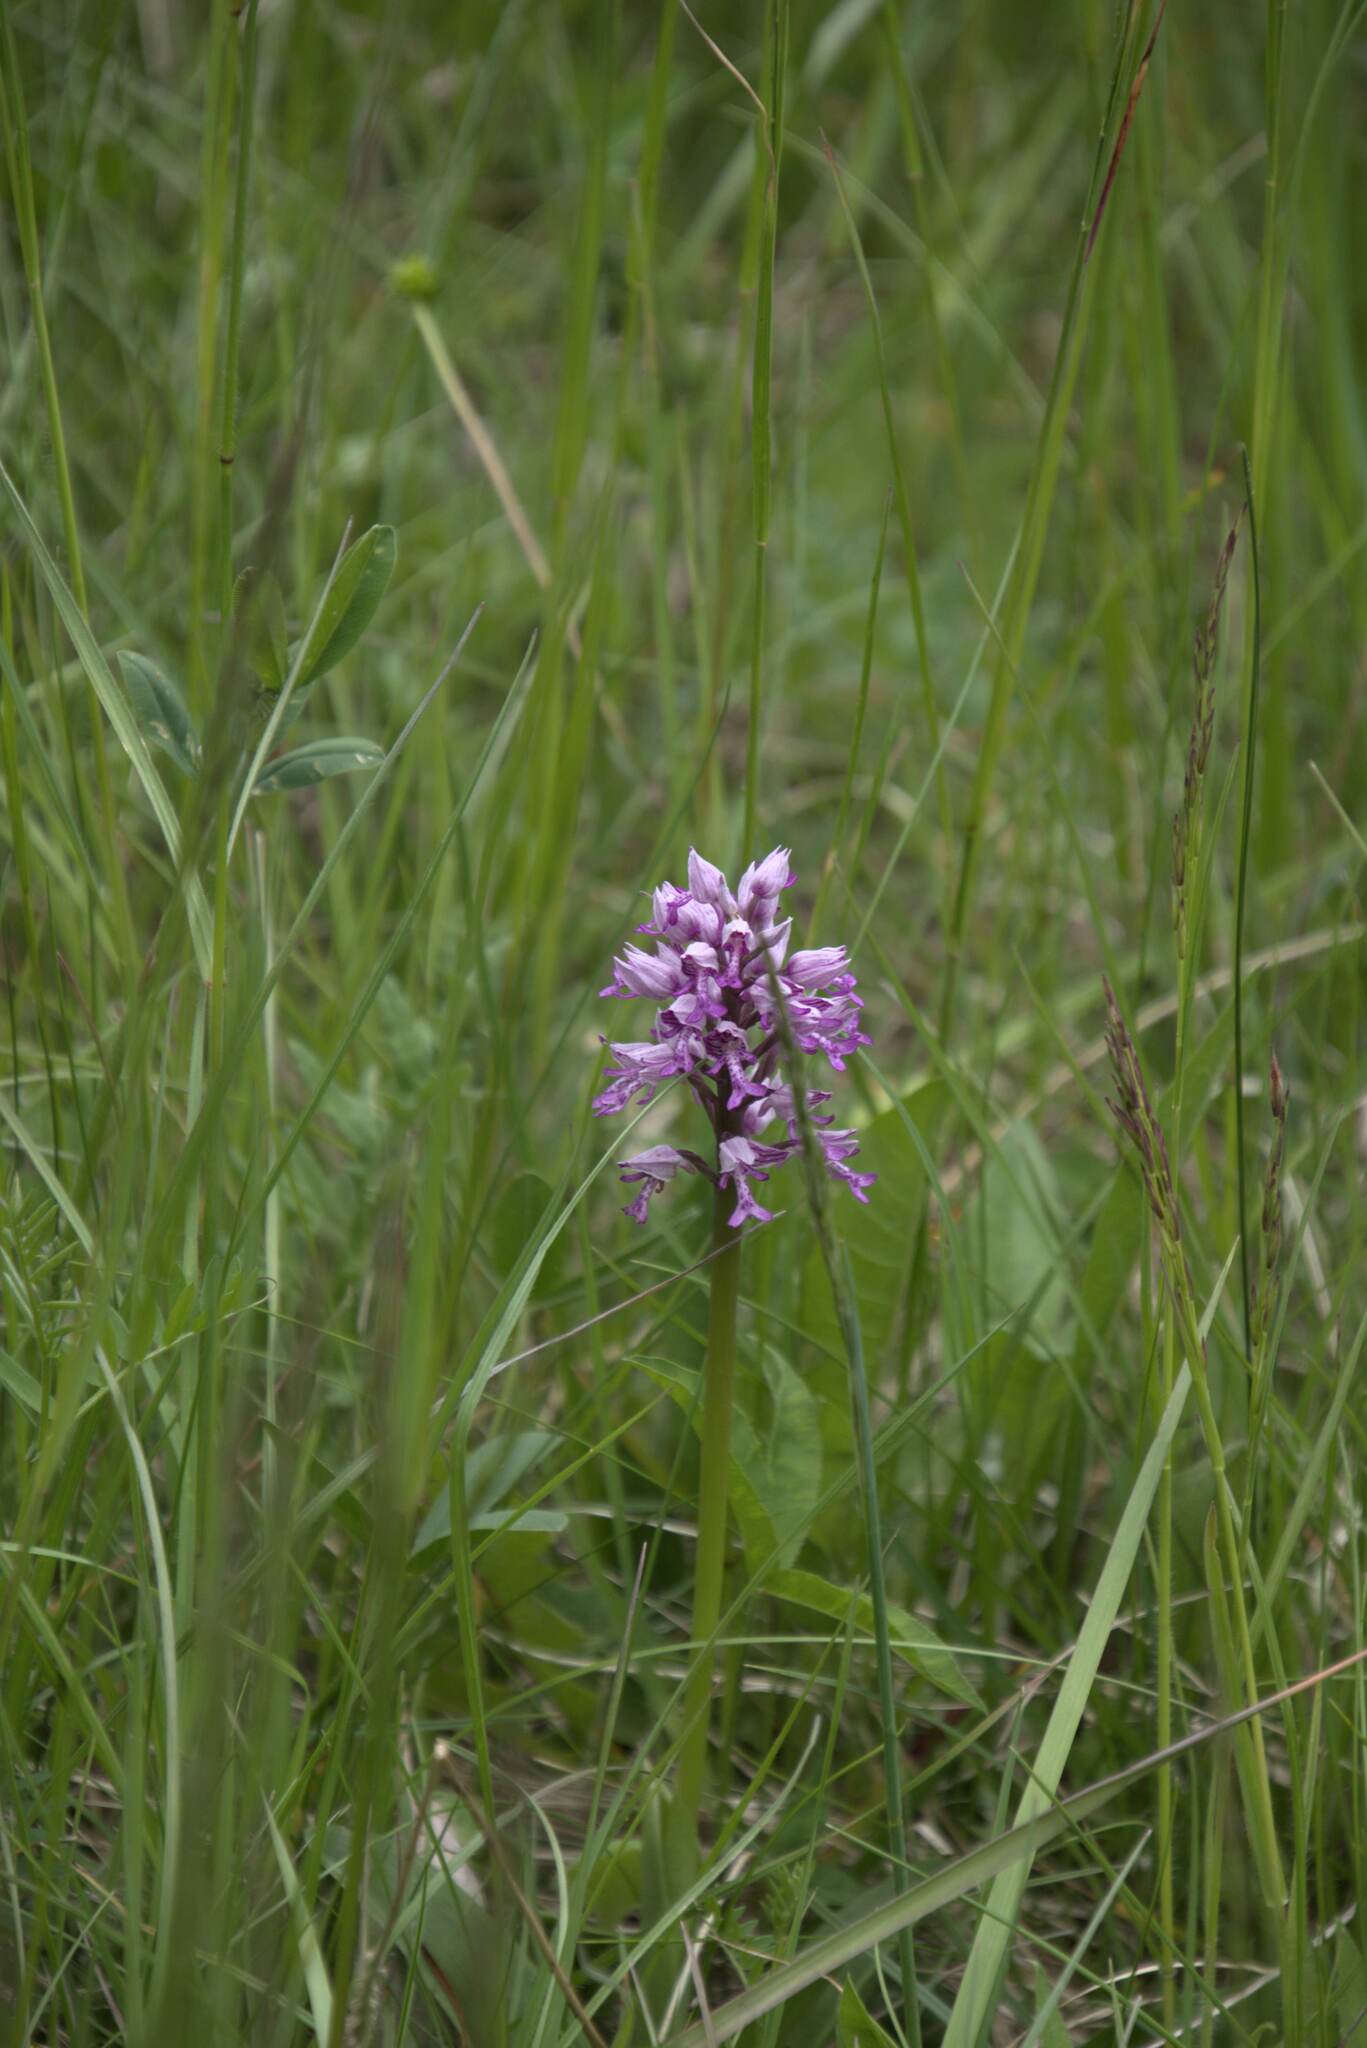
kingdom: Plantae
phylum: Tracheophyta
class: Liliopsida
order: Asparagales
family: Orchidaceae
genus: Orchis
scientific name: Orchis militaris
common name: Military orchid
